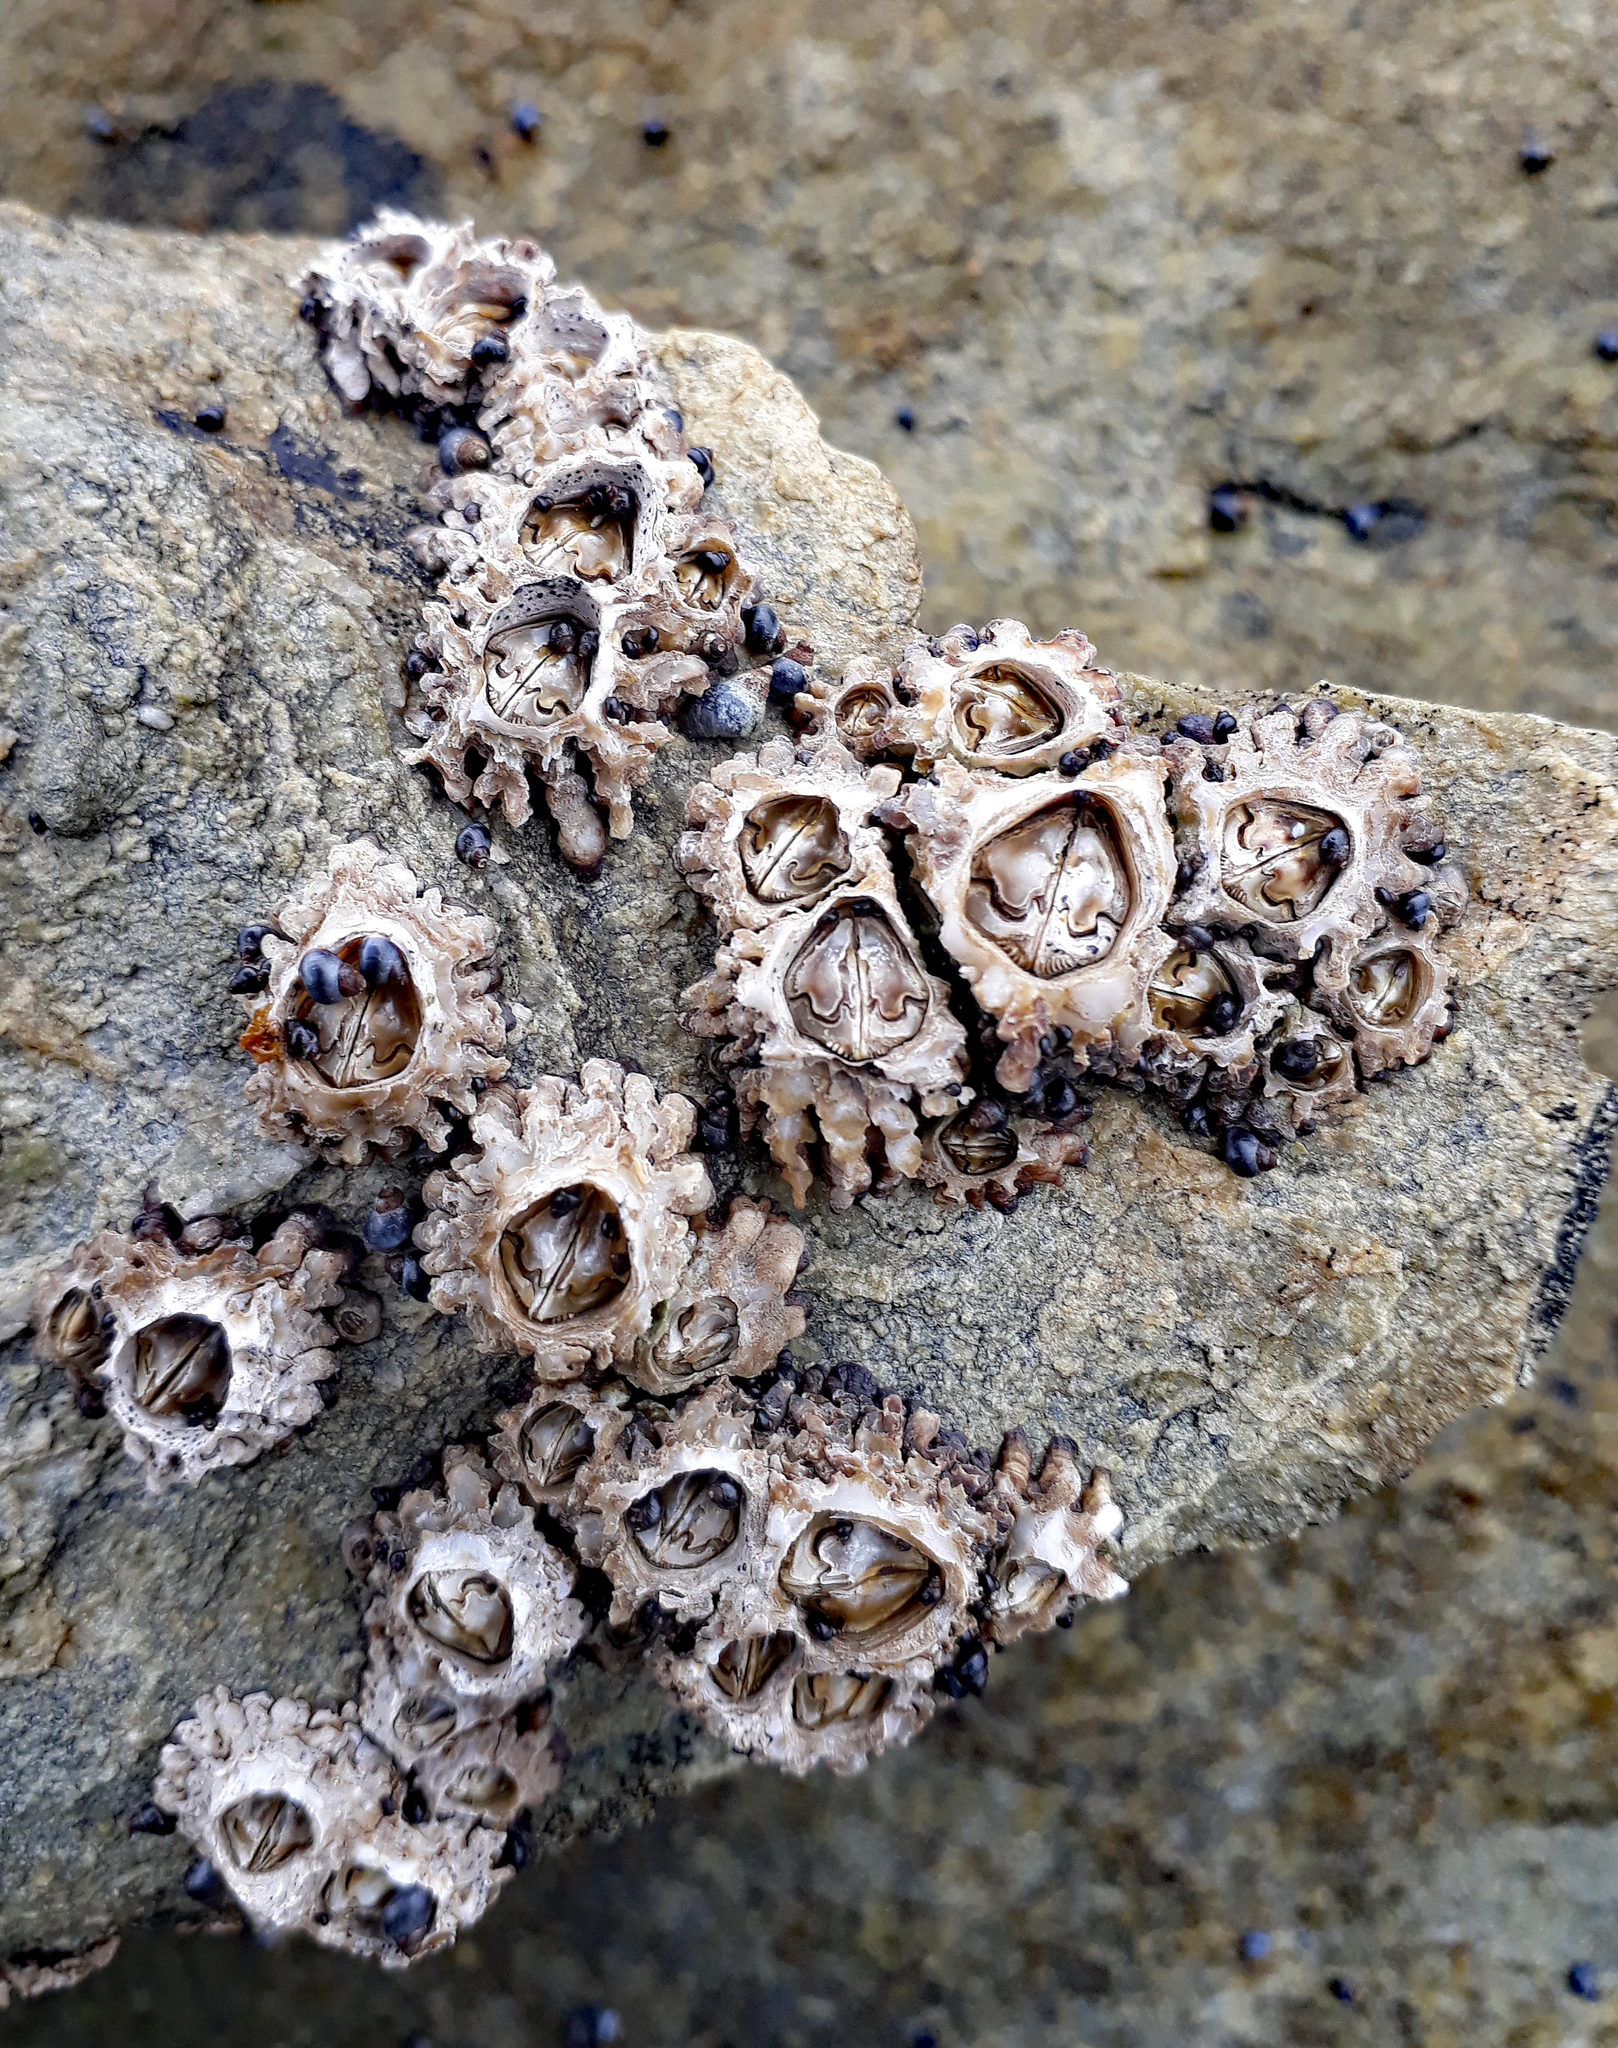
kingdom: Animalia
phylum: Arthropoda
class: Maxillopoda
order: Sessilia
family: Chthamalidae
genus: Chamaesipho
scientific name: Chamaesipho brunnea
